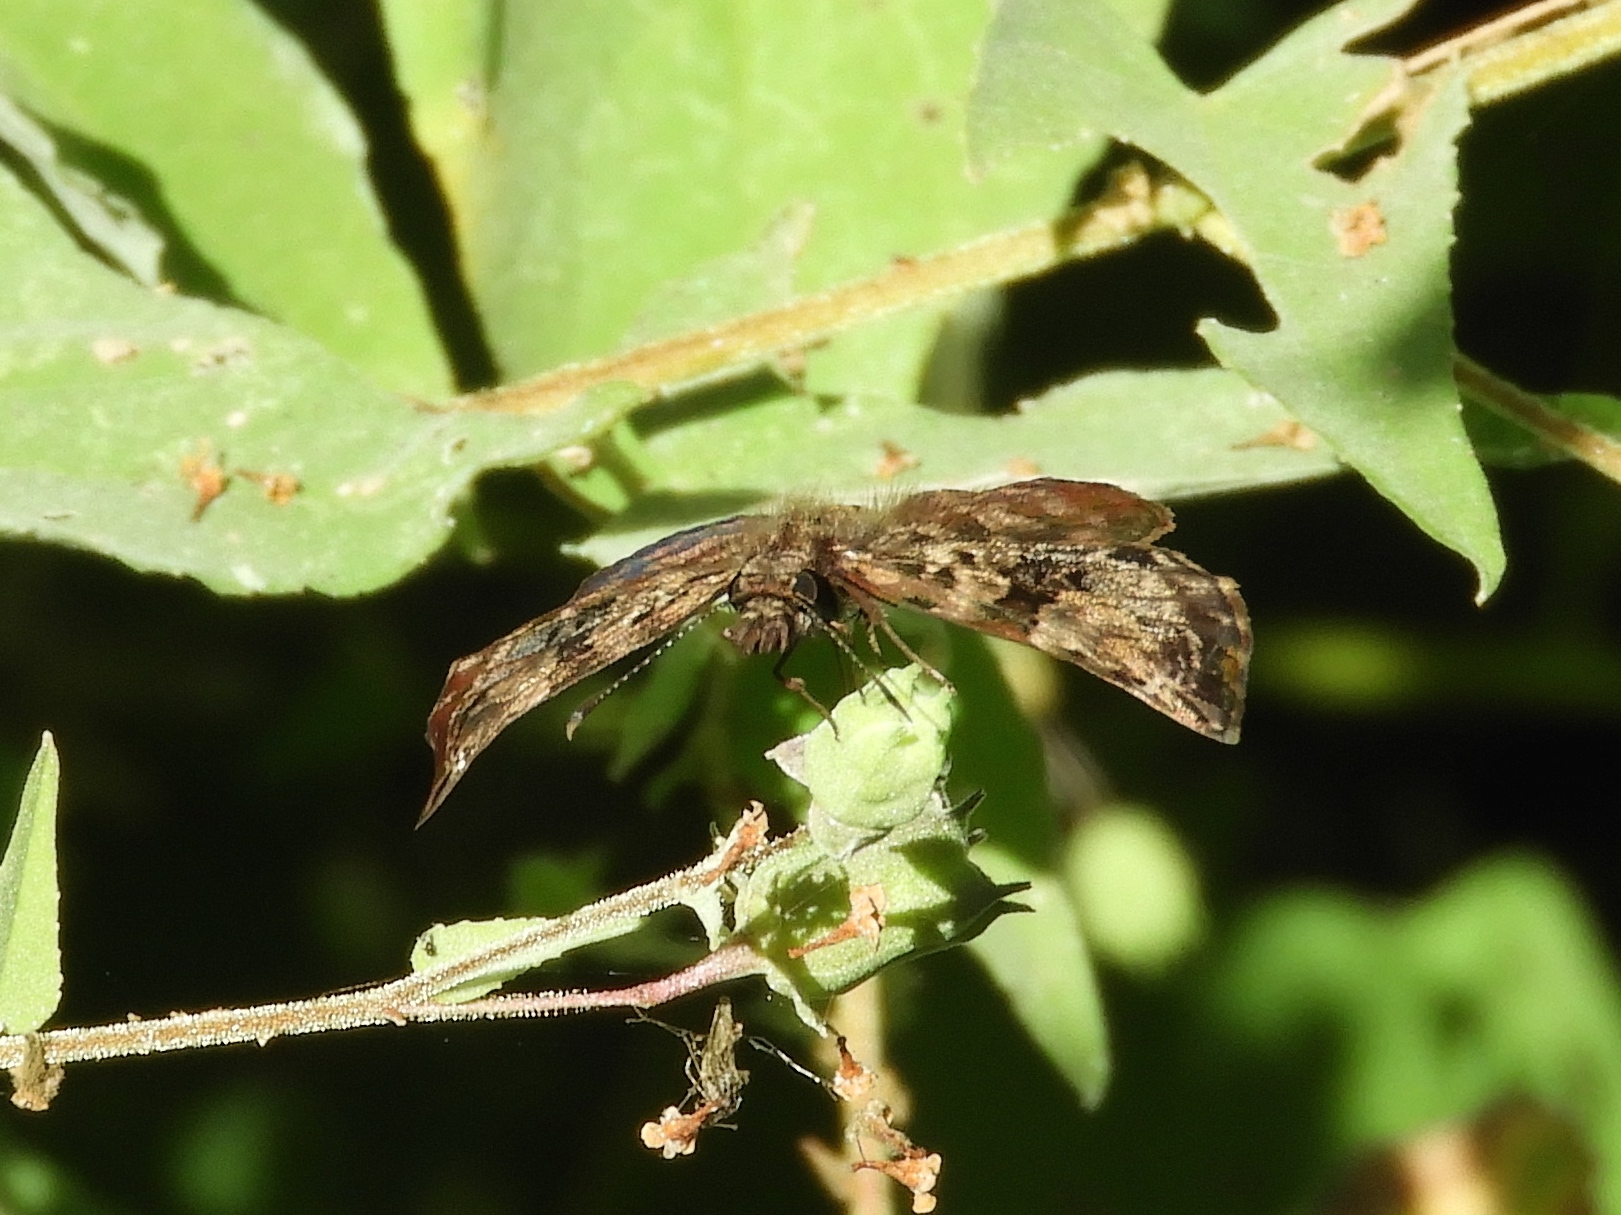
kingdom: Animalia
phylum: Arthropoda
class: Insecta
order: Lepidoptera
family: Hesperiidae
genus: Antigonus
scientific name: Antigonus erosus
